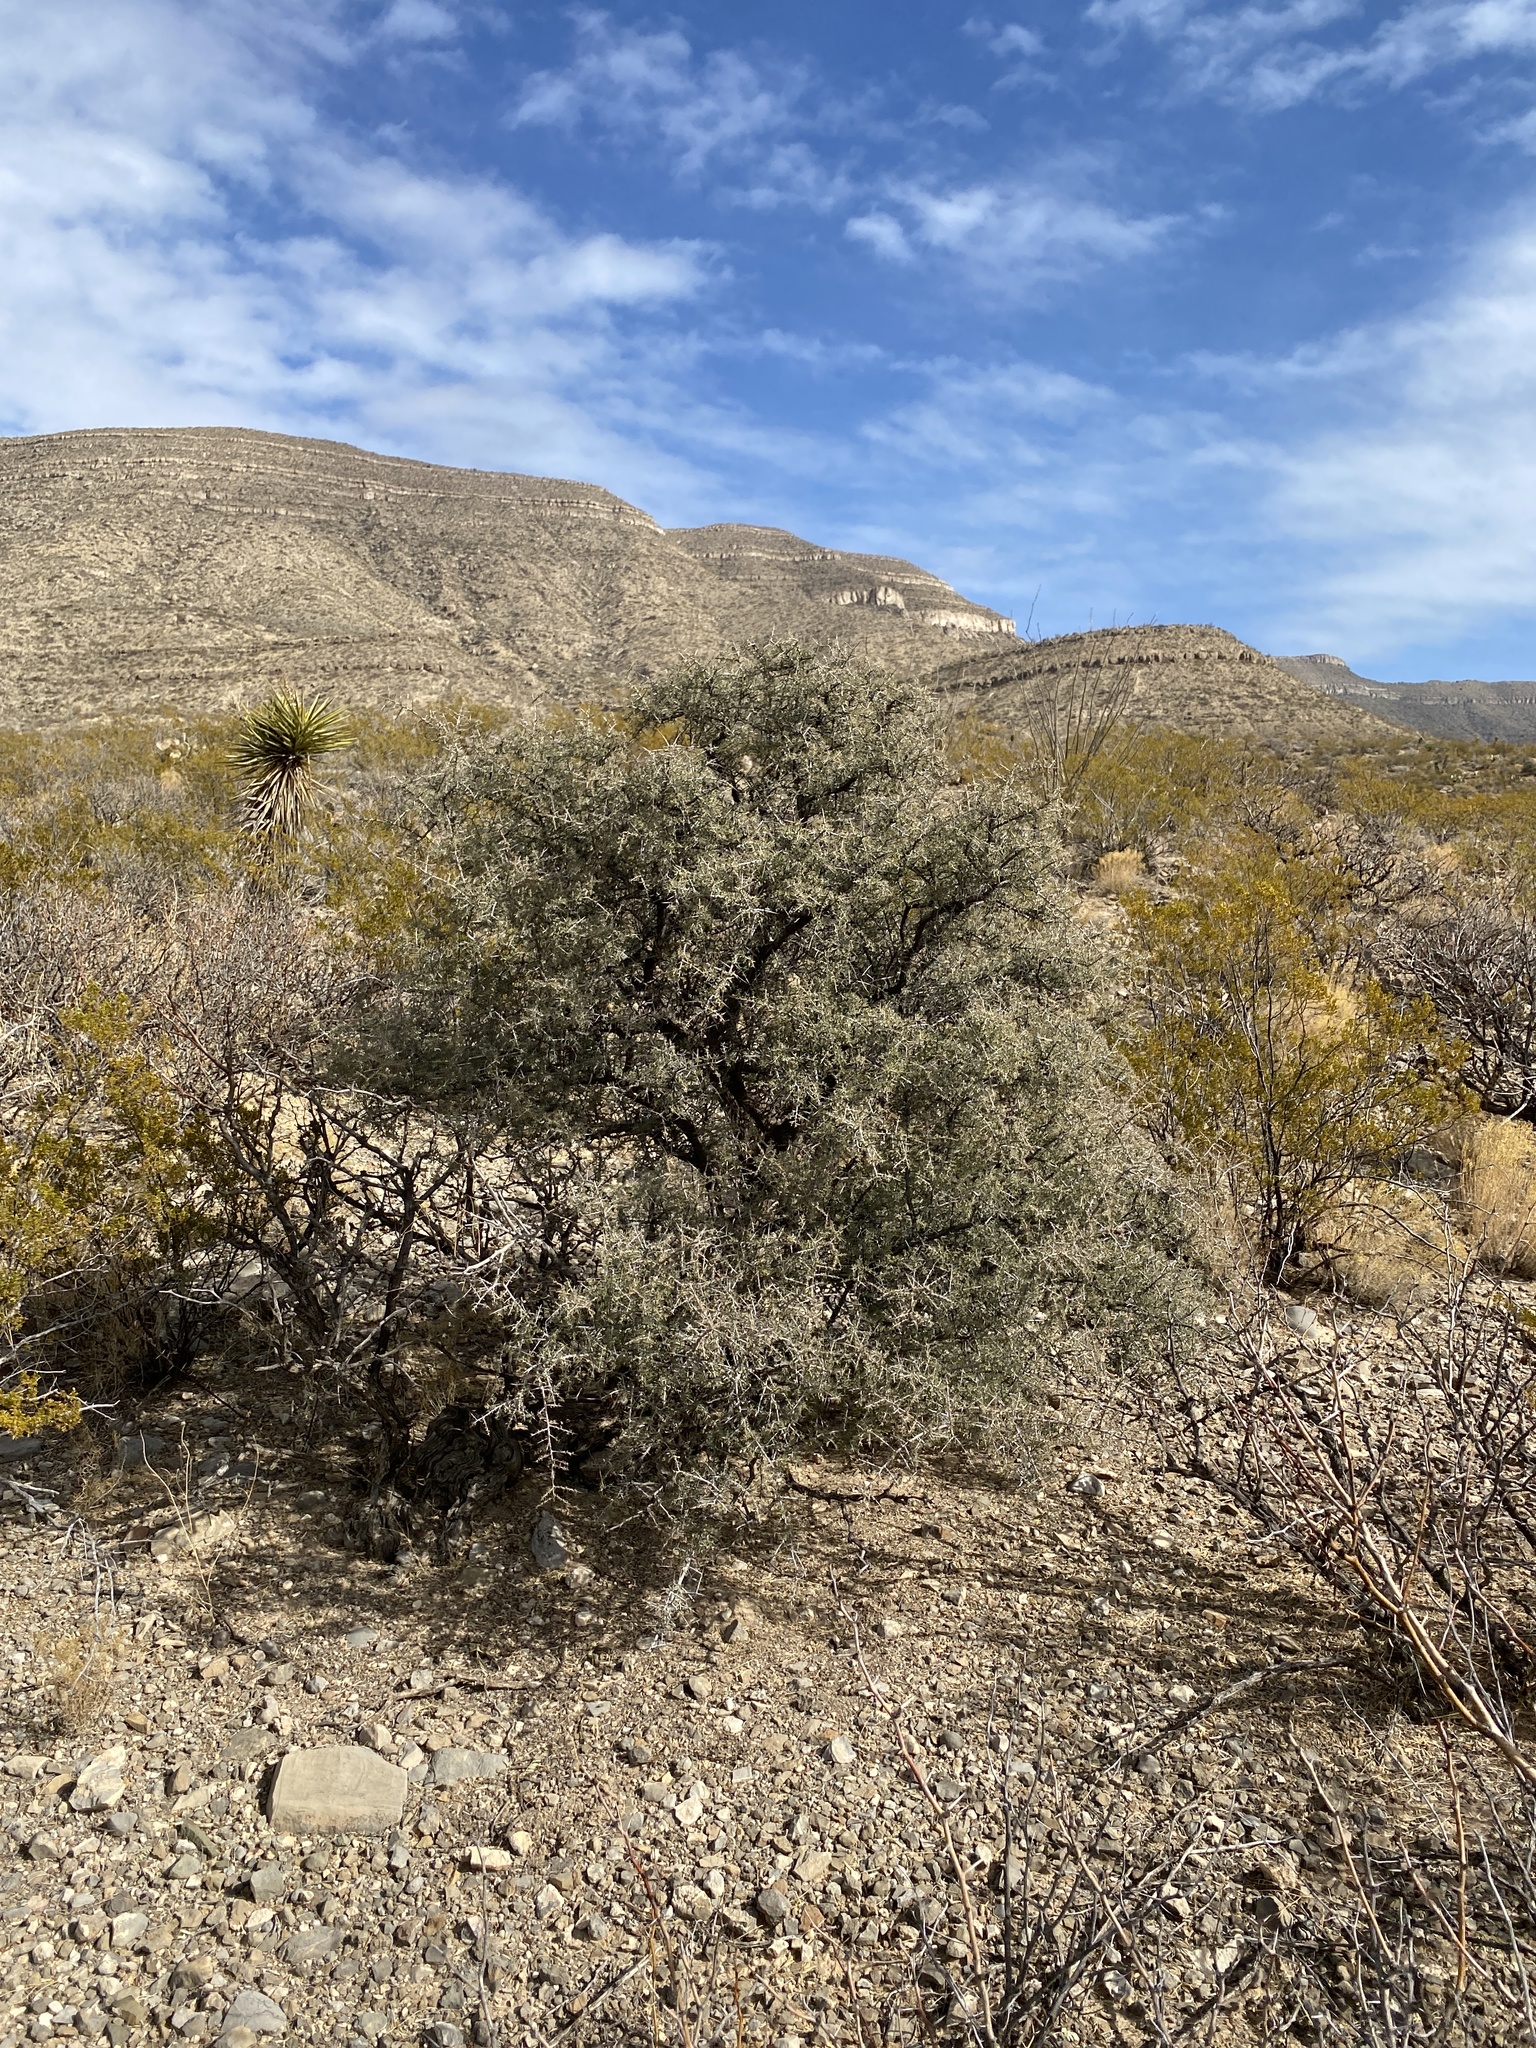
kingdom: Plantae
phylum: Tracheophyta
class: Magnoliopsida
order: Rosales
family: Rhamnaceae
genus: Condalia
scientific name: Condalia warnockii
